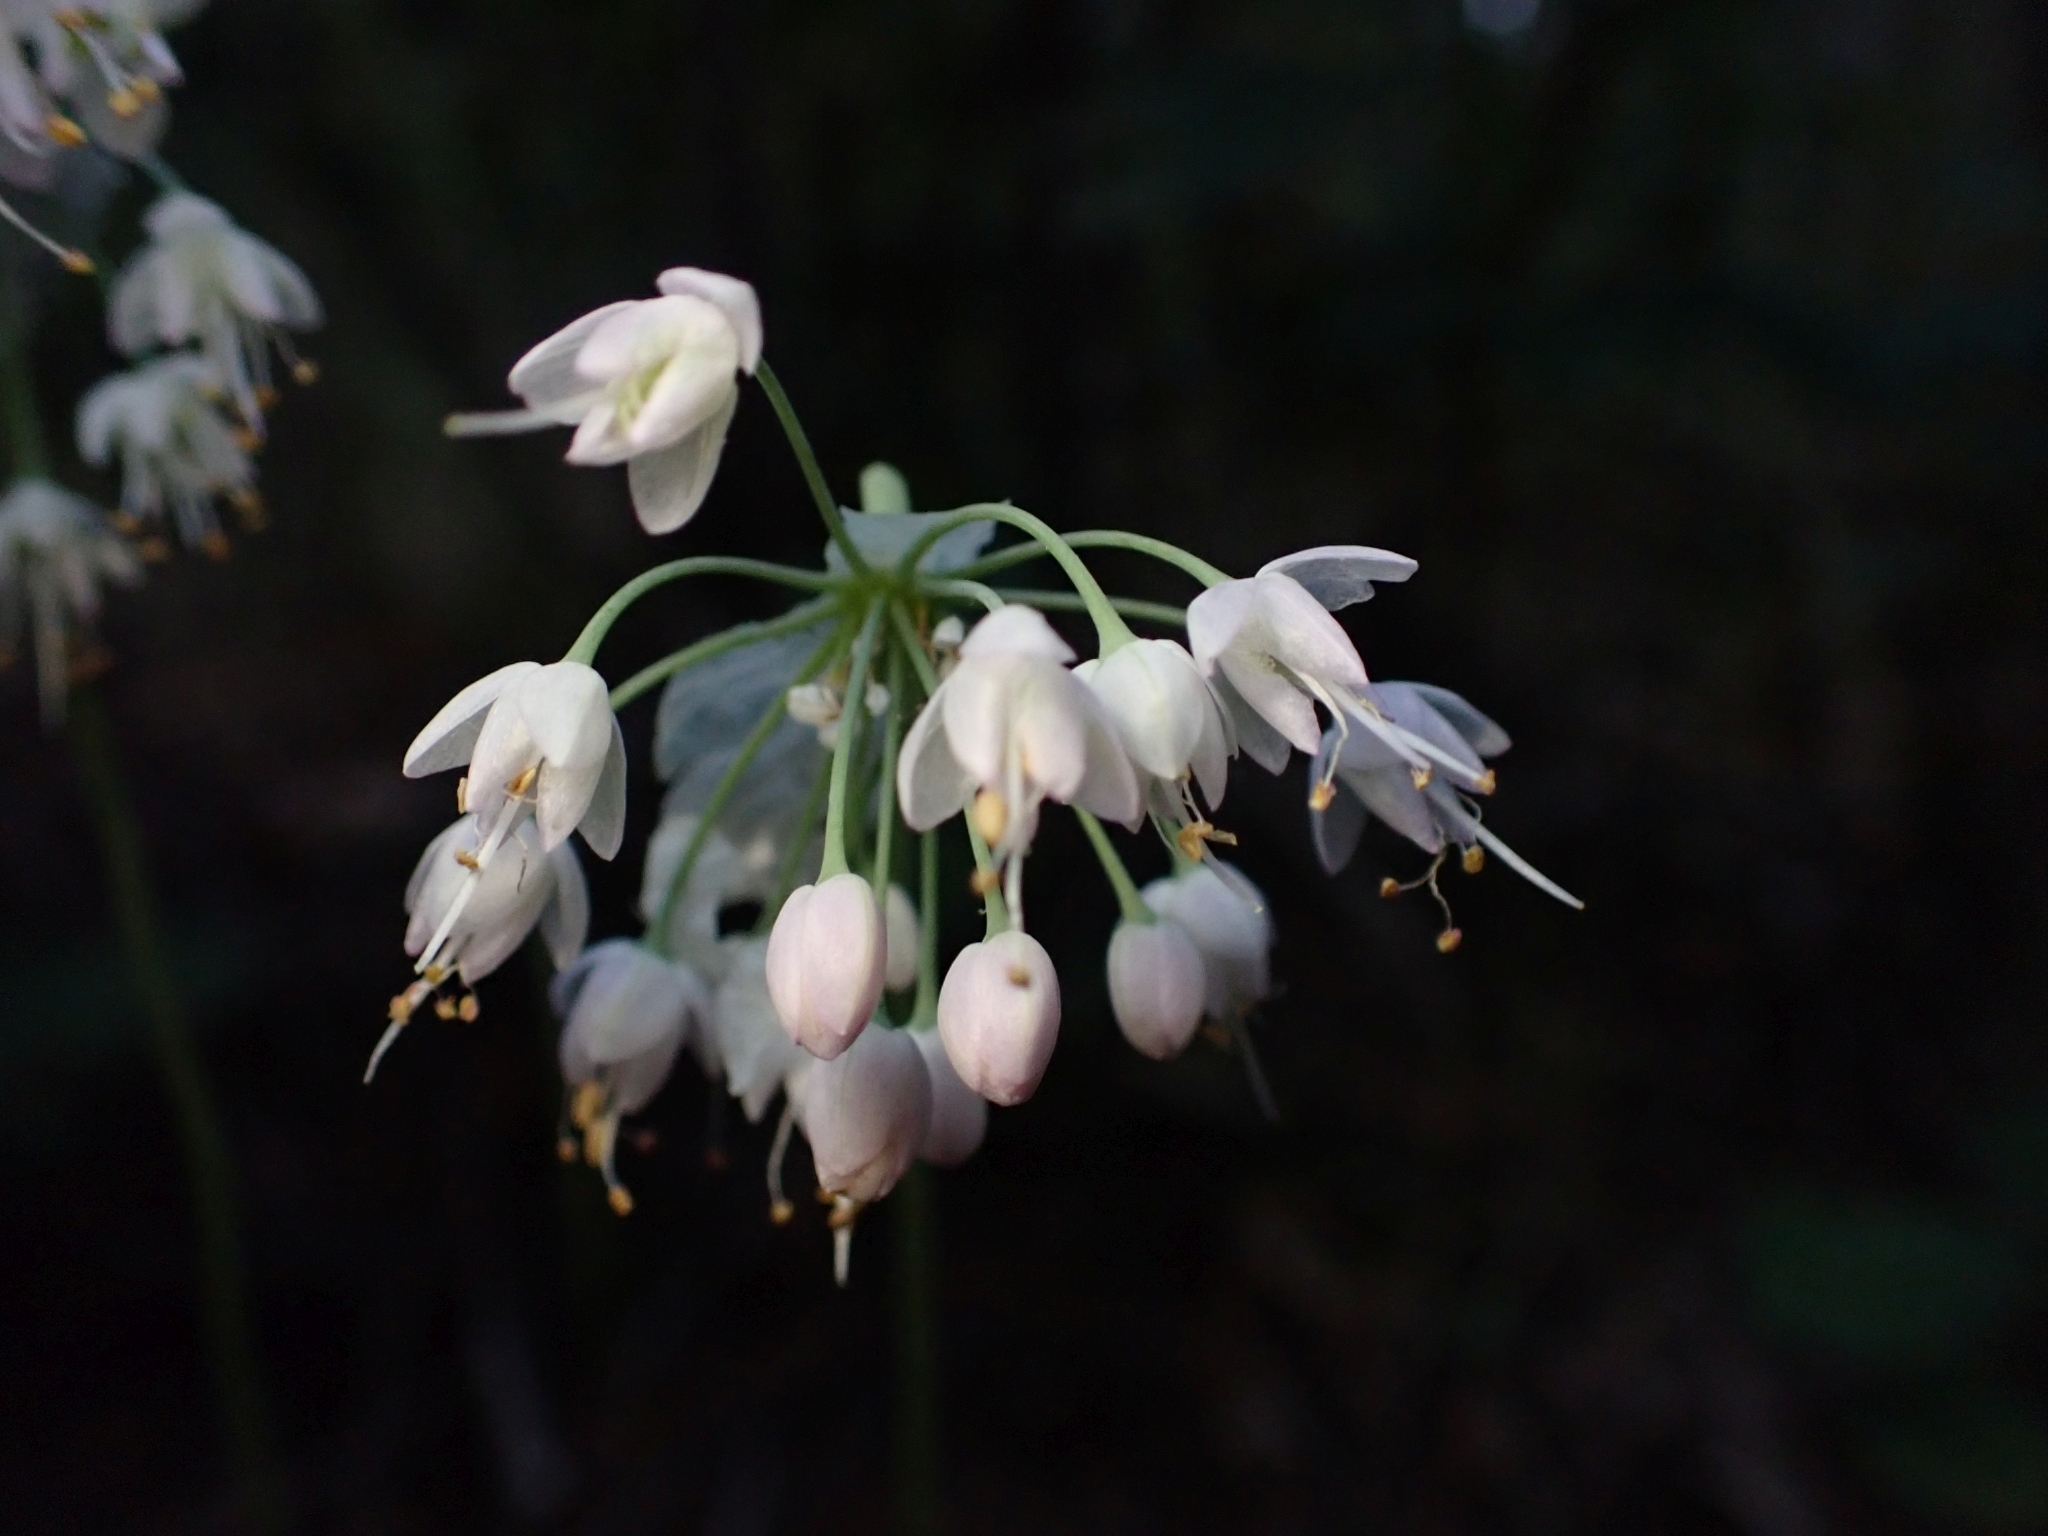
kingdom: Plantae
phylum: Tracheophyta
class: Liliopsida
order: Asparagales
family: Amaryllidaceae
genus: Allium
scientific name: Allium cernuum
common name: Nodding onion
